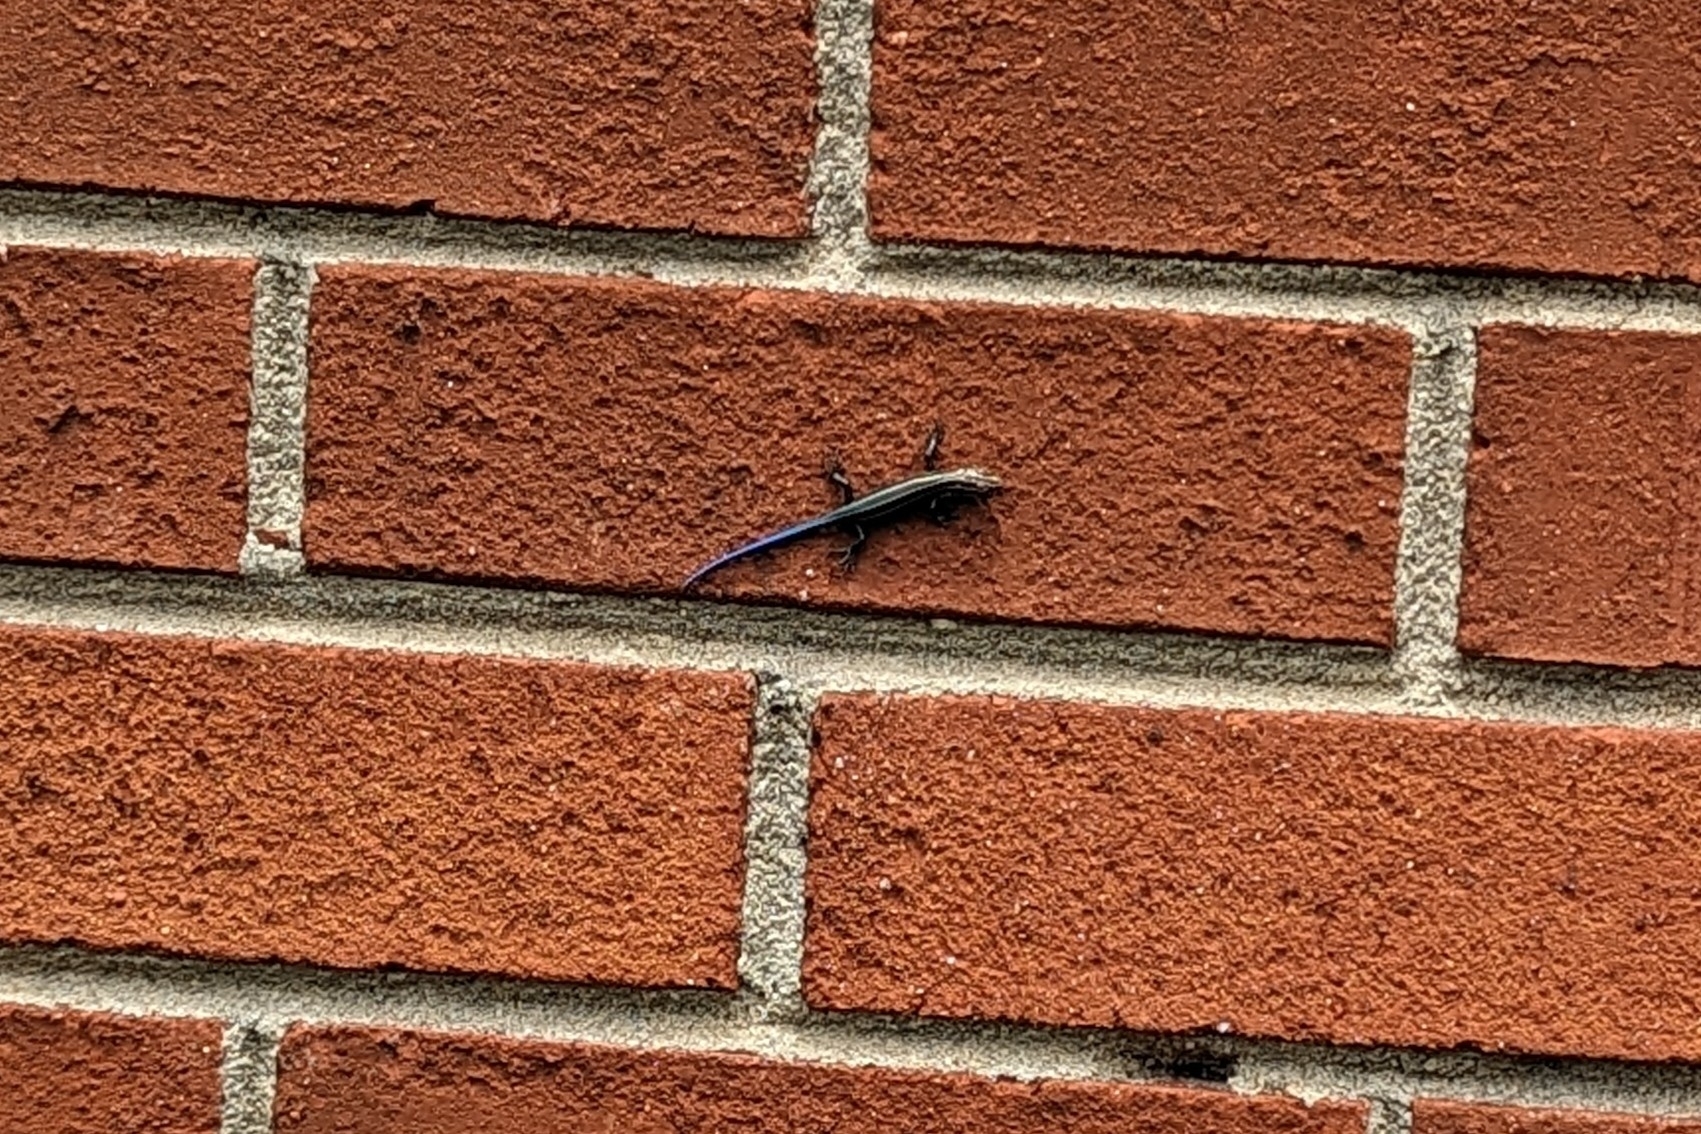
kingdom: Animalia
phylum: Chordata
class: Squamata
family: Scincidae
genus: Plestiodon
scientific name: Plestiodon fasciatus
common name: Five-lined skink
